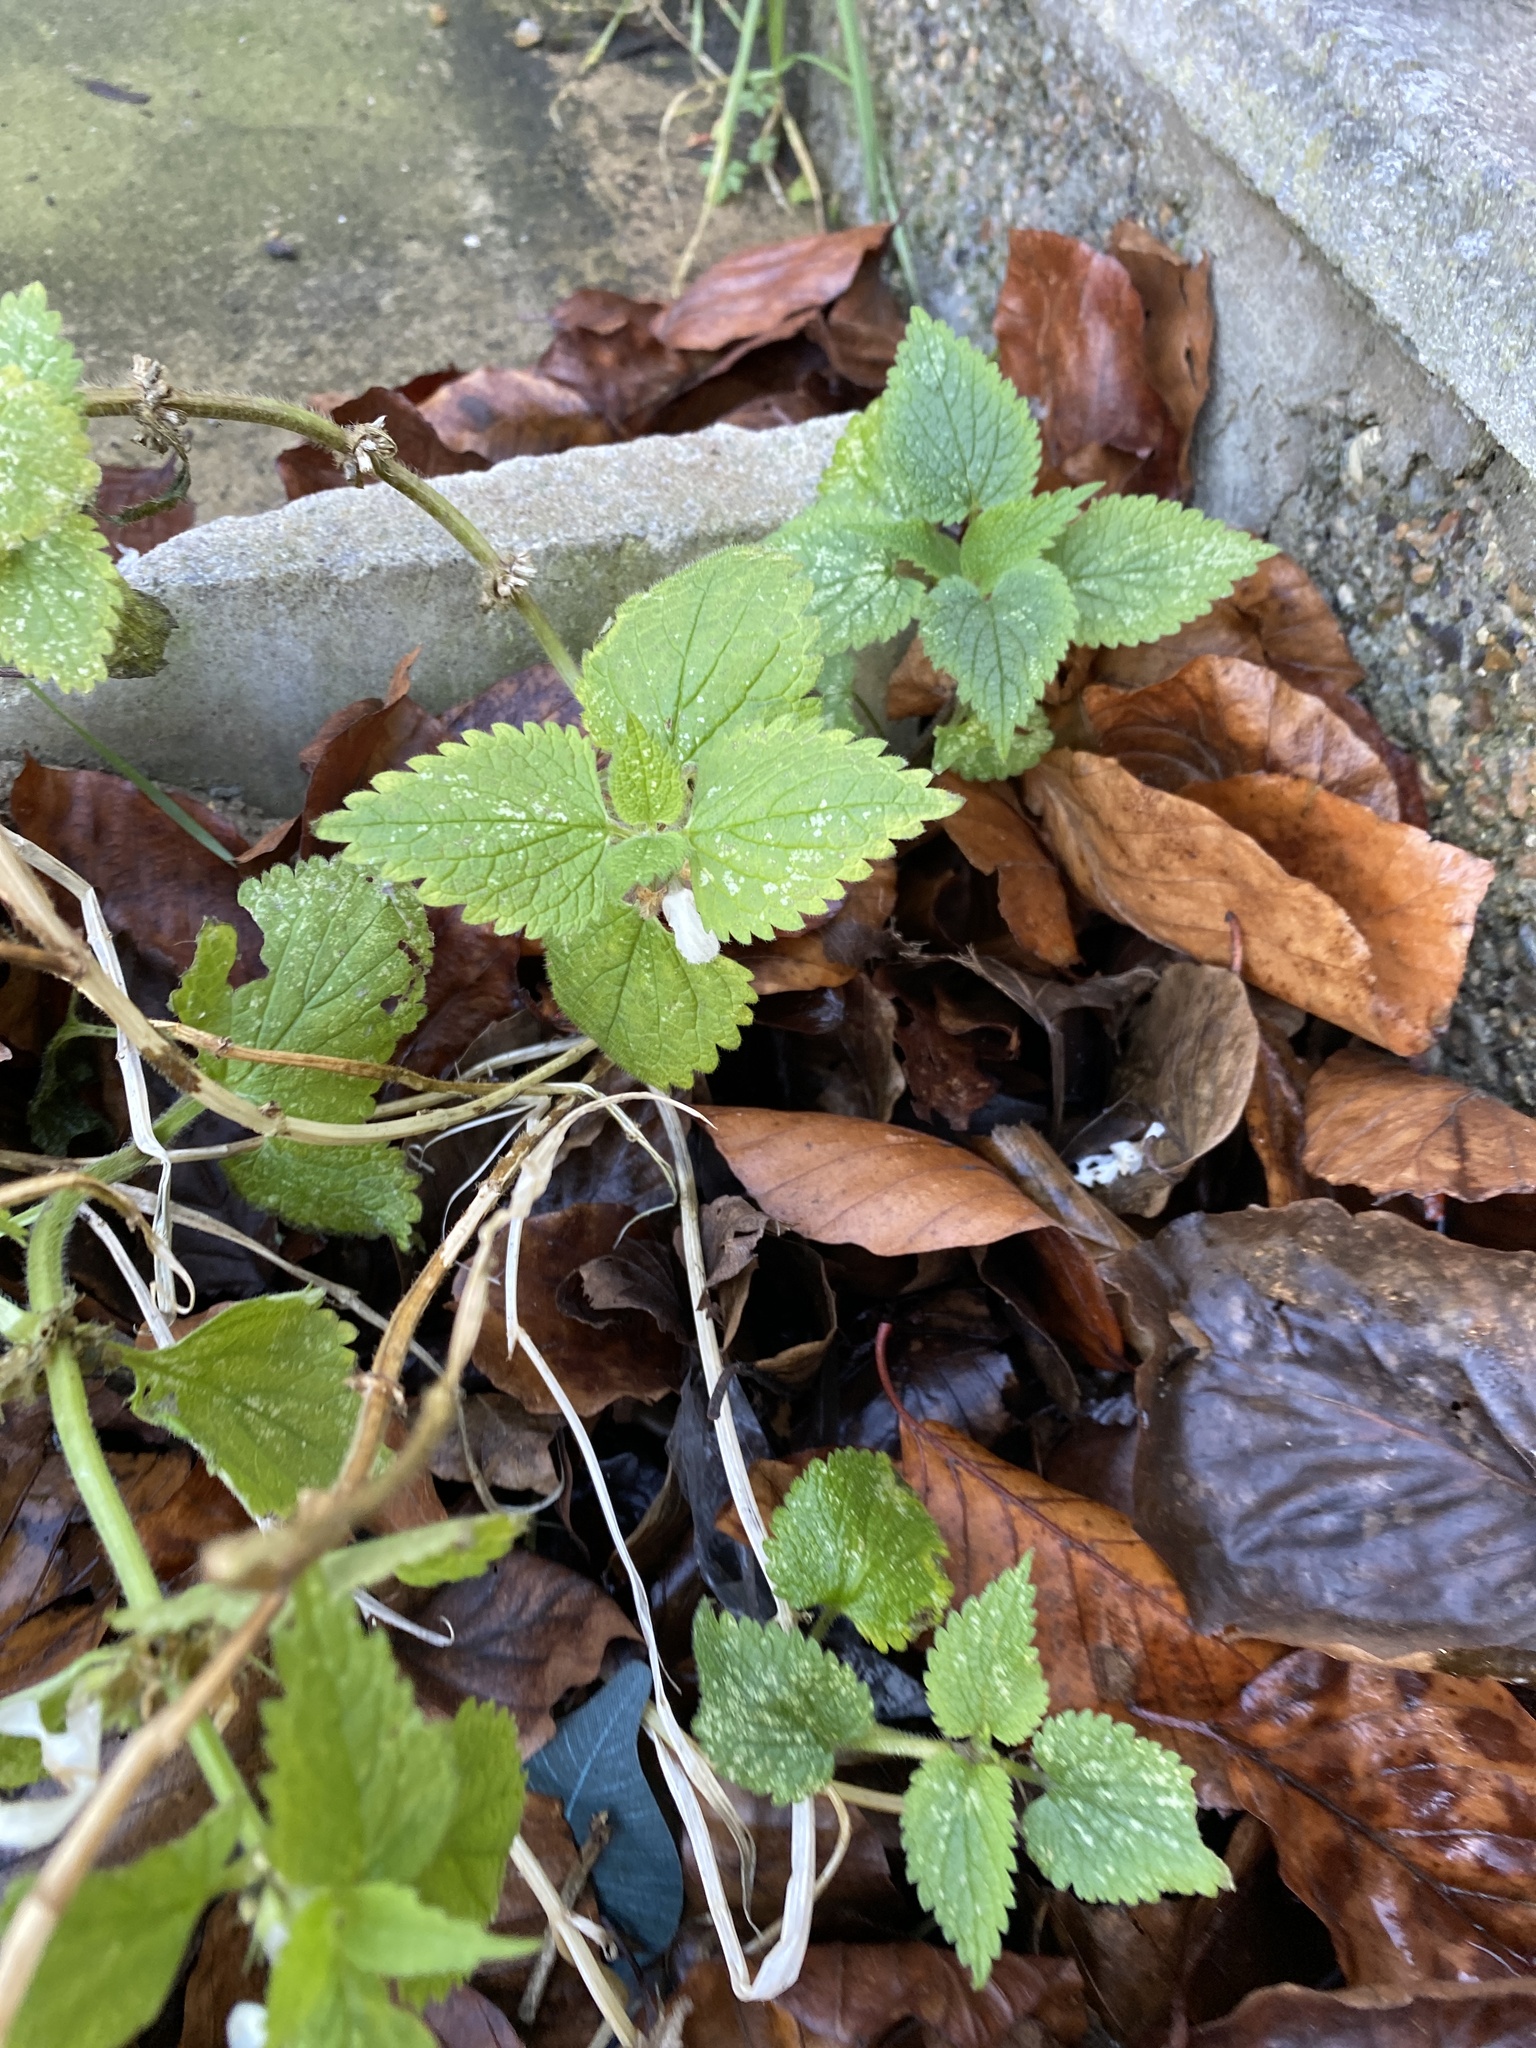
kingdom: Plantae
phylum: Tracheophyta
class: Magnoliopsida
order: Lamiales
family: Lamiaceae
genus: Lamium
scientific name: Lamium album
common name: White dead-nettle
